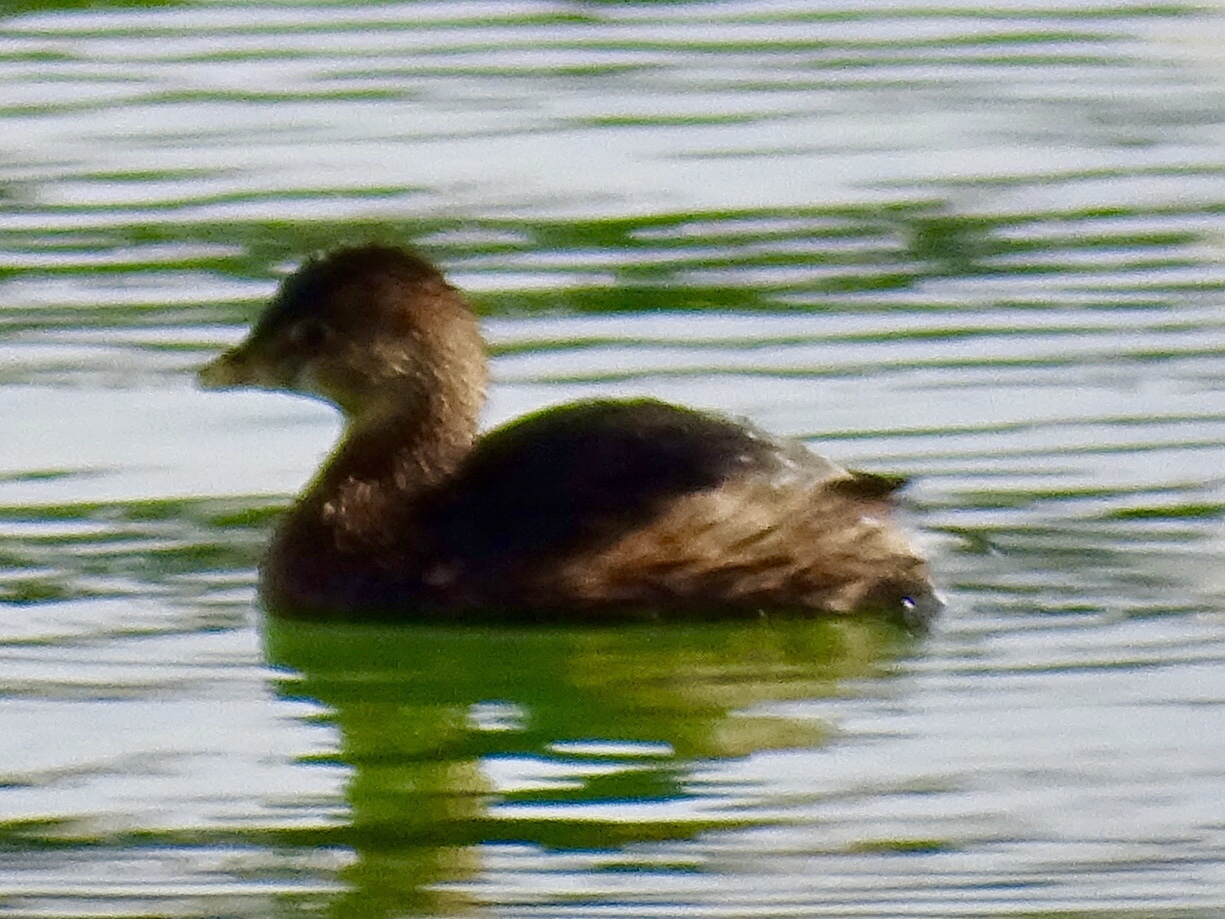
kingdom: Animalia
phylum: Chordata
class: Aves
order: Podicipediformes
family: Podicipedidae
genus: Podilymbus
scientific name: Podilymbus podiceps
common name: Pied-billed grebe
